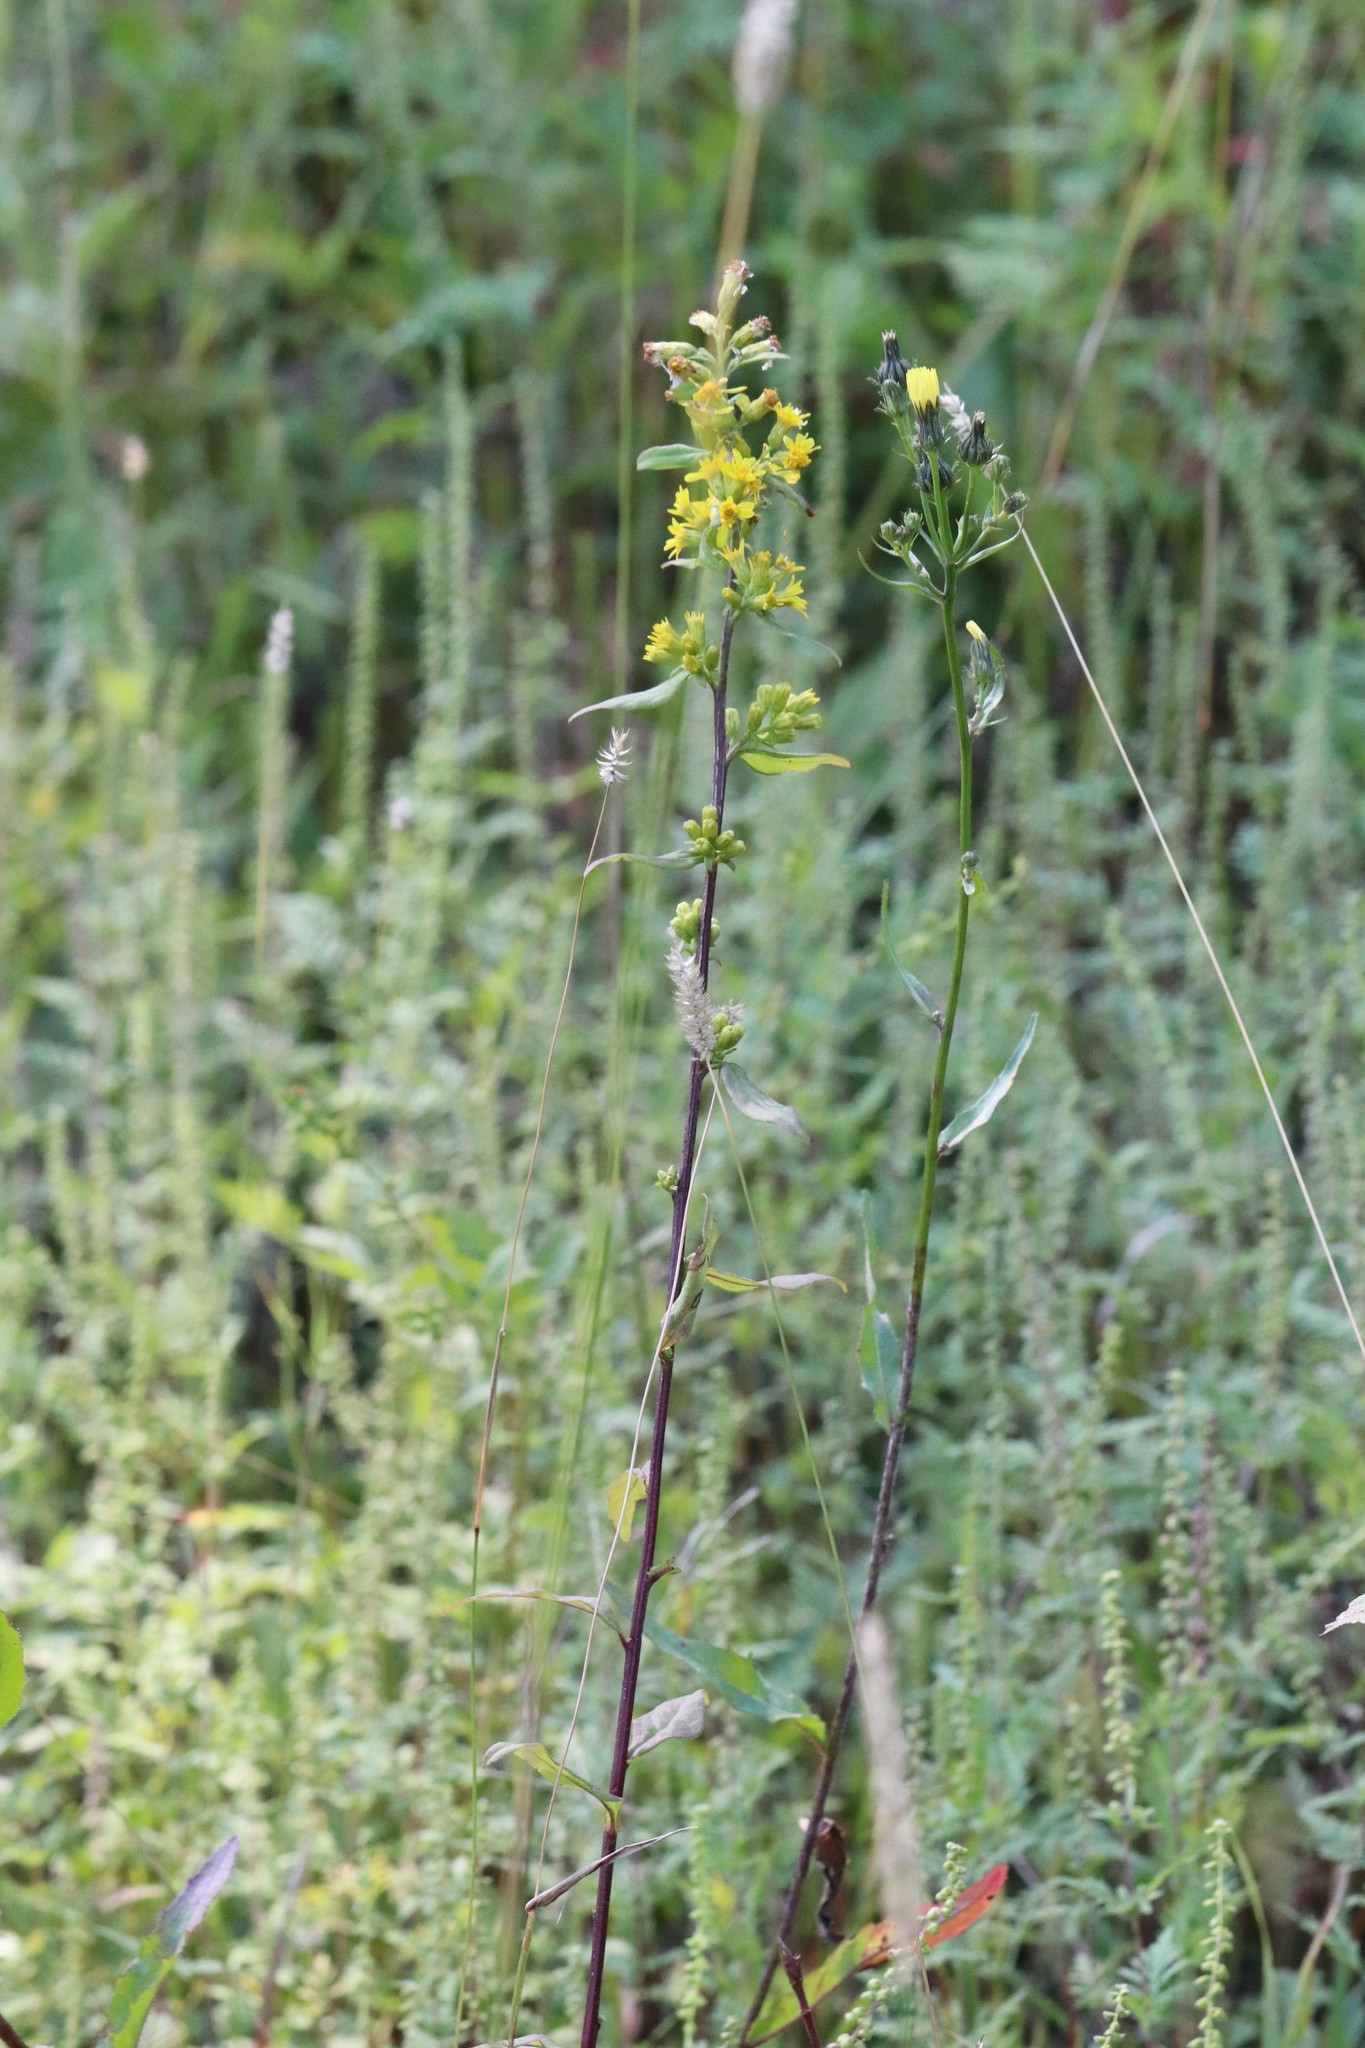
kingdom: Plantae
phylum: Tracheophyta
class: Magnoliopsida
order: Asterales
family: Asteraceae
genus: Solidago
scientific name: Solidago decurrens
